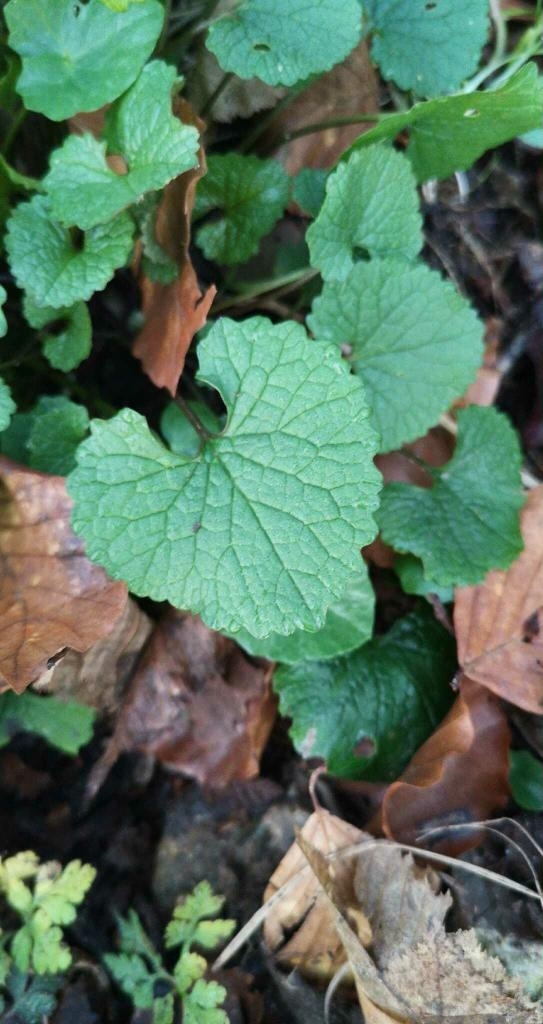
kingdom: Plantae
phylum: Tracheophyta
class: Magnoliopsida
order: Brassicales
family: Brassicaceae
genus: Alliaria
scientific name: Alliaria petiolata
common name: Garlic mustard
